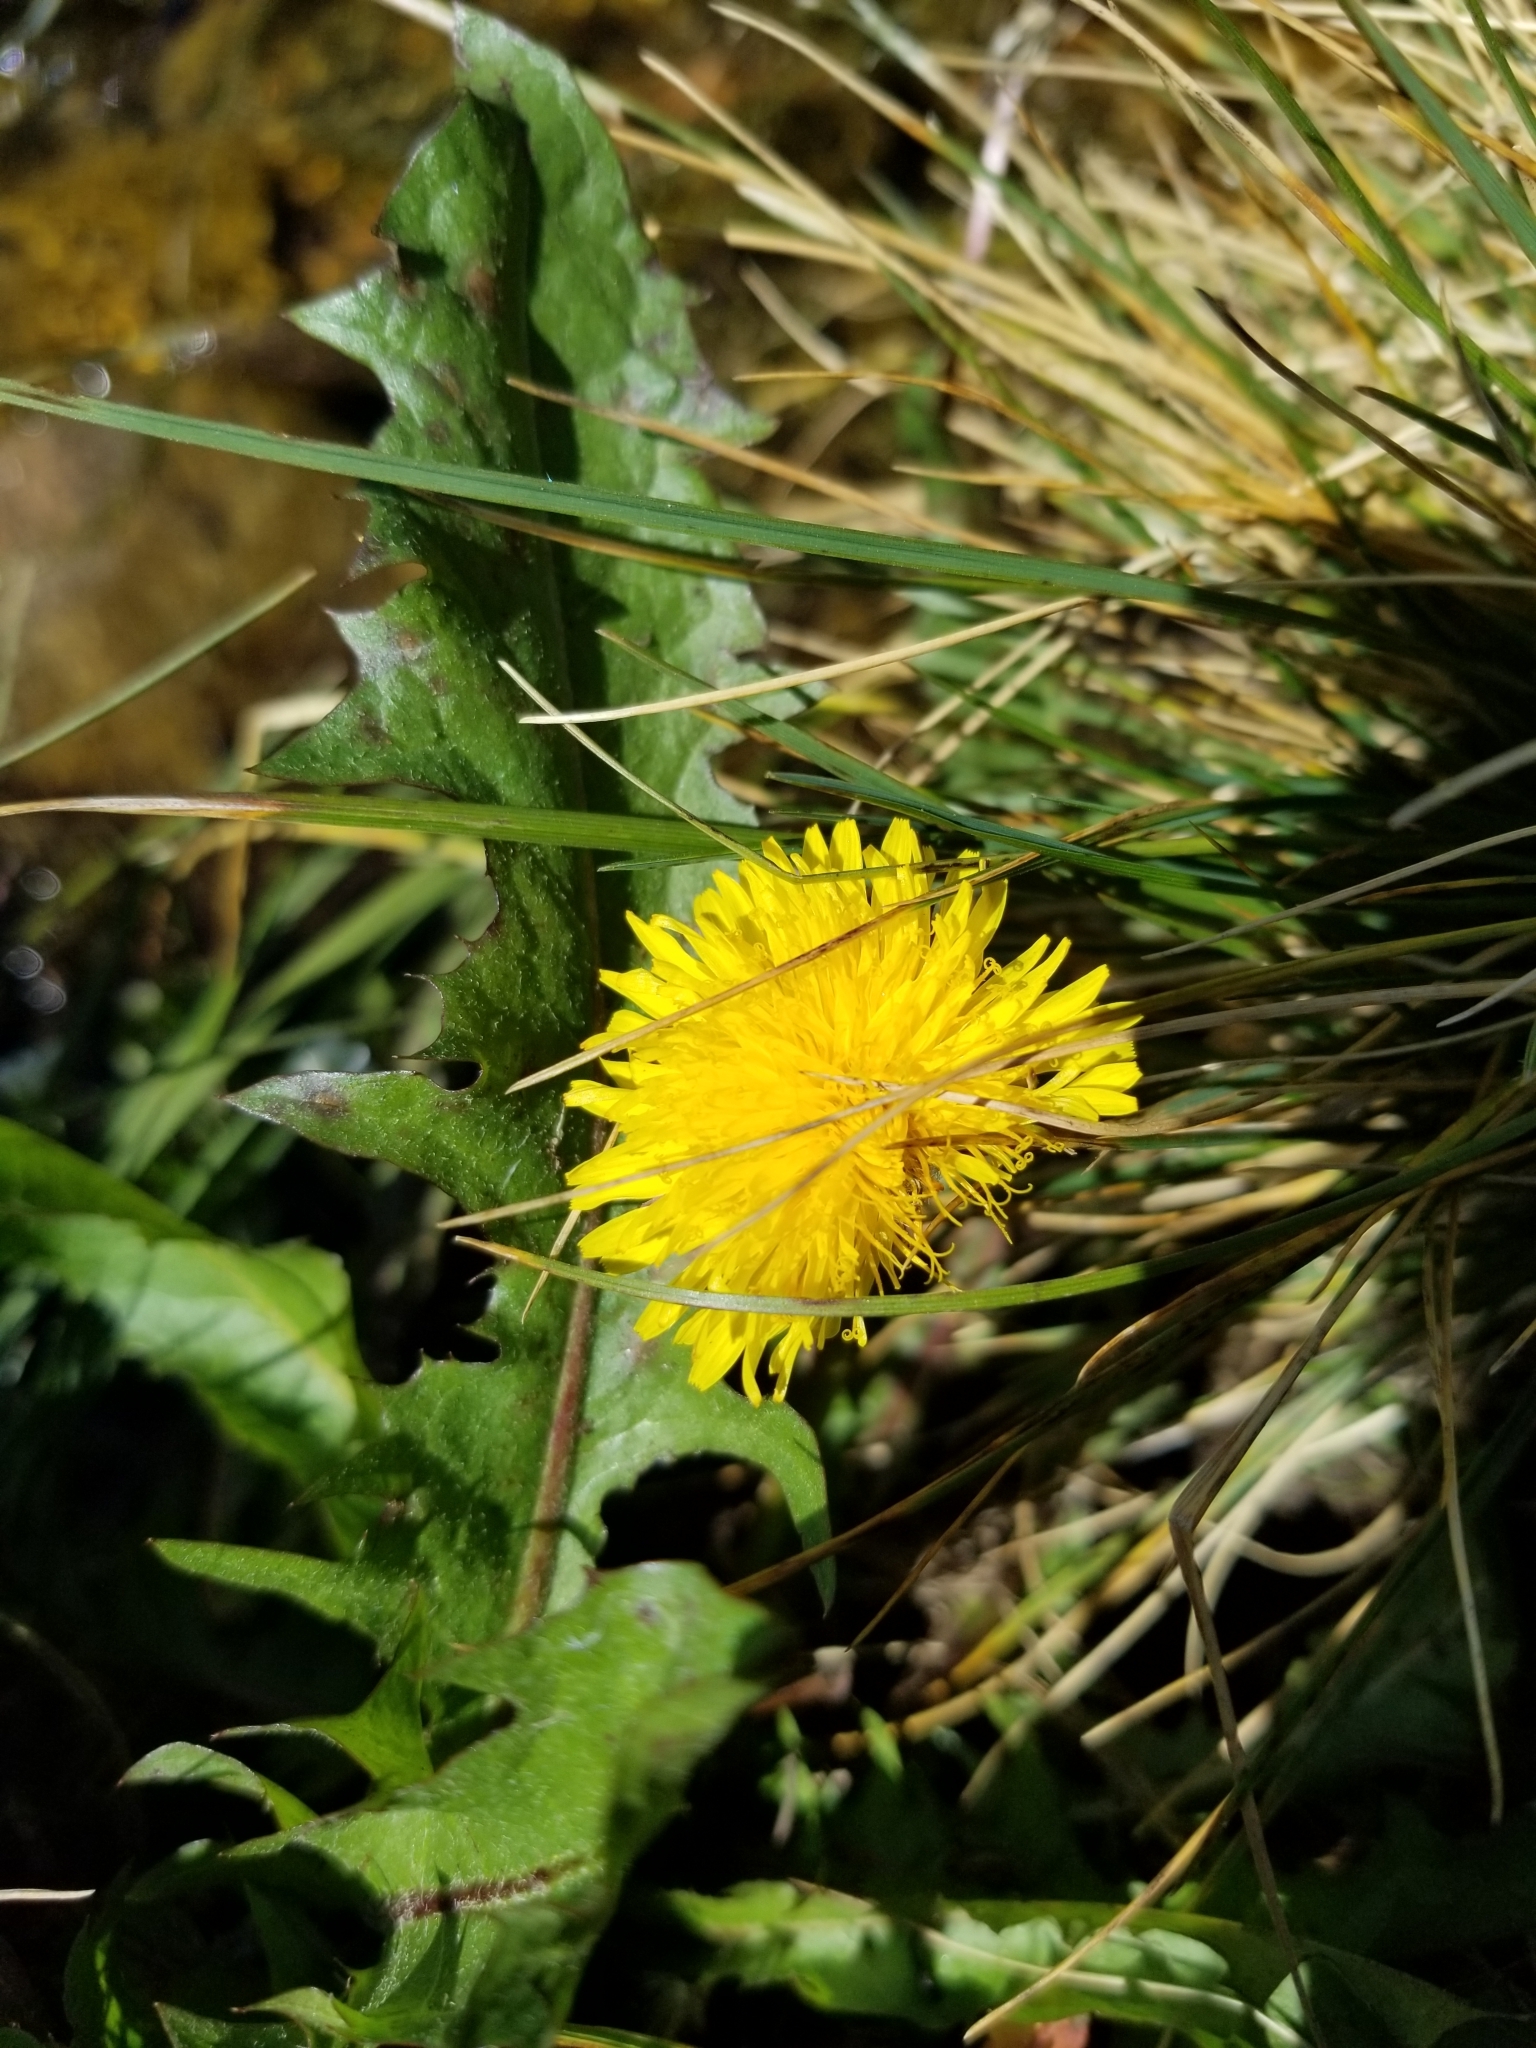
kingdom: Plantae
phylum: Tracheophyta
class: Magnoliopsida
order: Asterales
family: Asteraceae
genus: Taraxacum
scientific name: Taraxacum officinale
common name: Common dandelion
